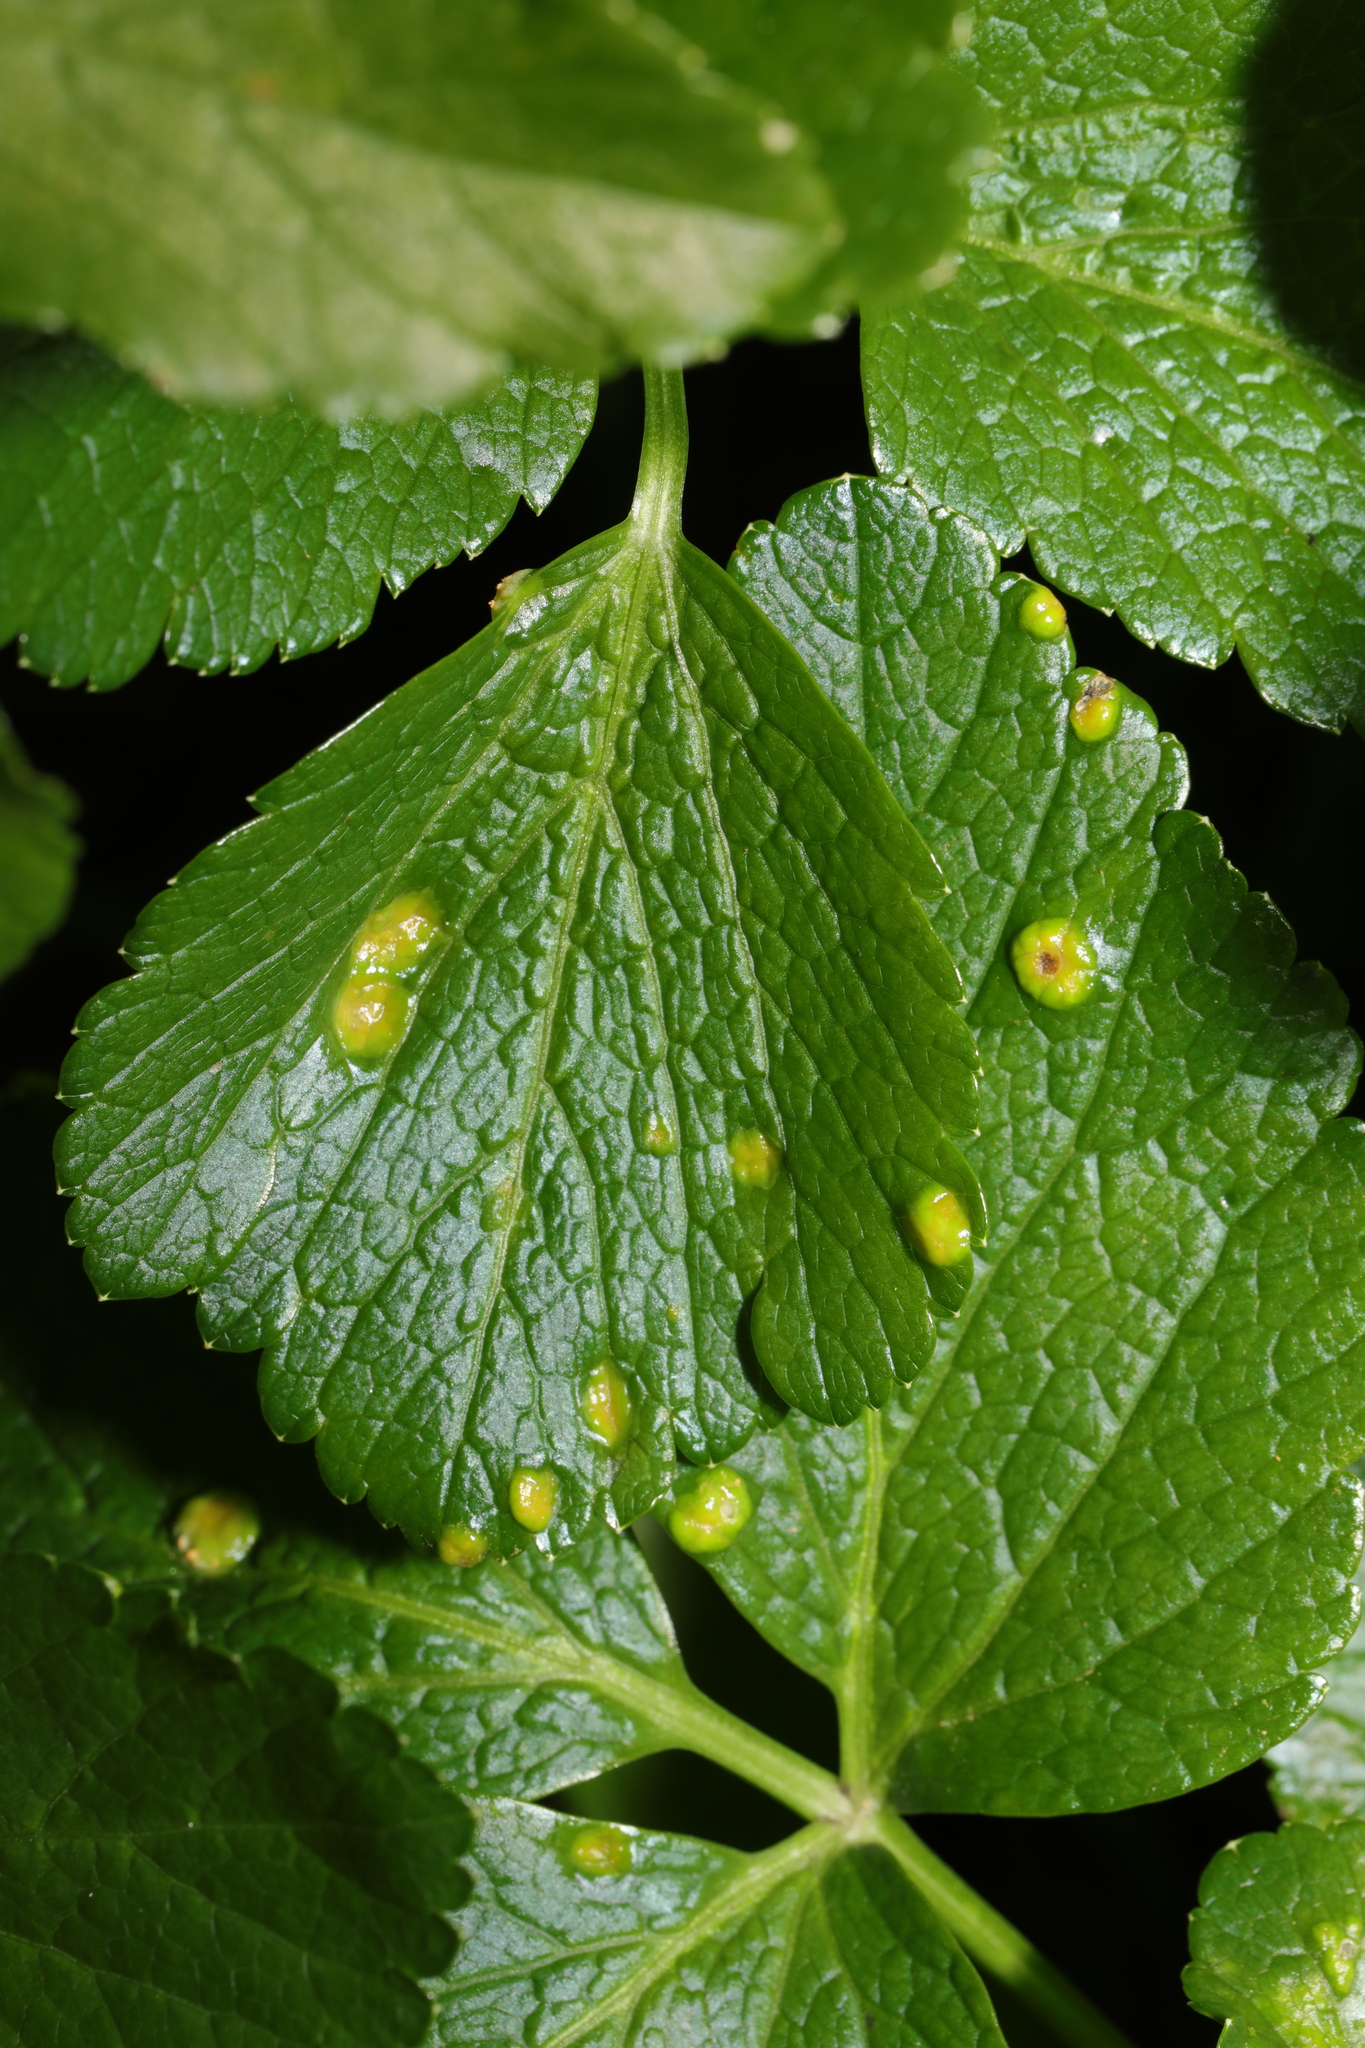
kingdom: Fungi
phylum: Basidiomycota
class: Pucciniomycetes
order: Pucciniales
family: Pucciniaceae
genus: Puccinia
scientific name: Puccinia smyrnii
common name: Alexanders rust
